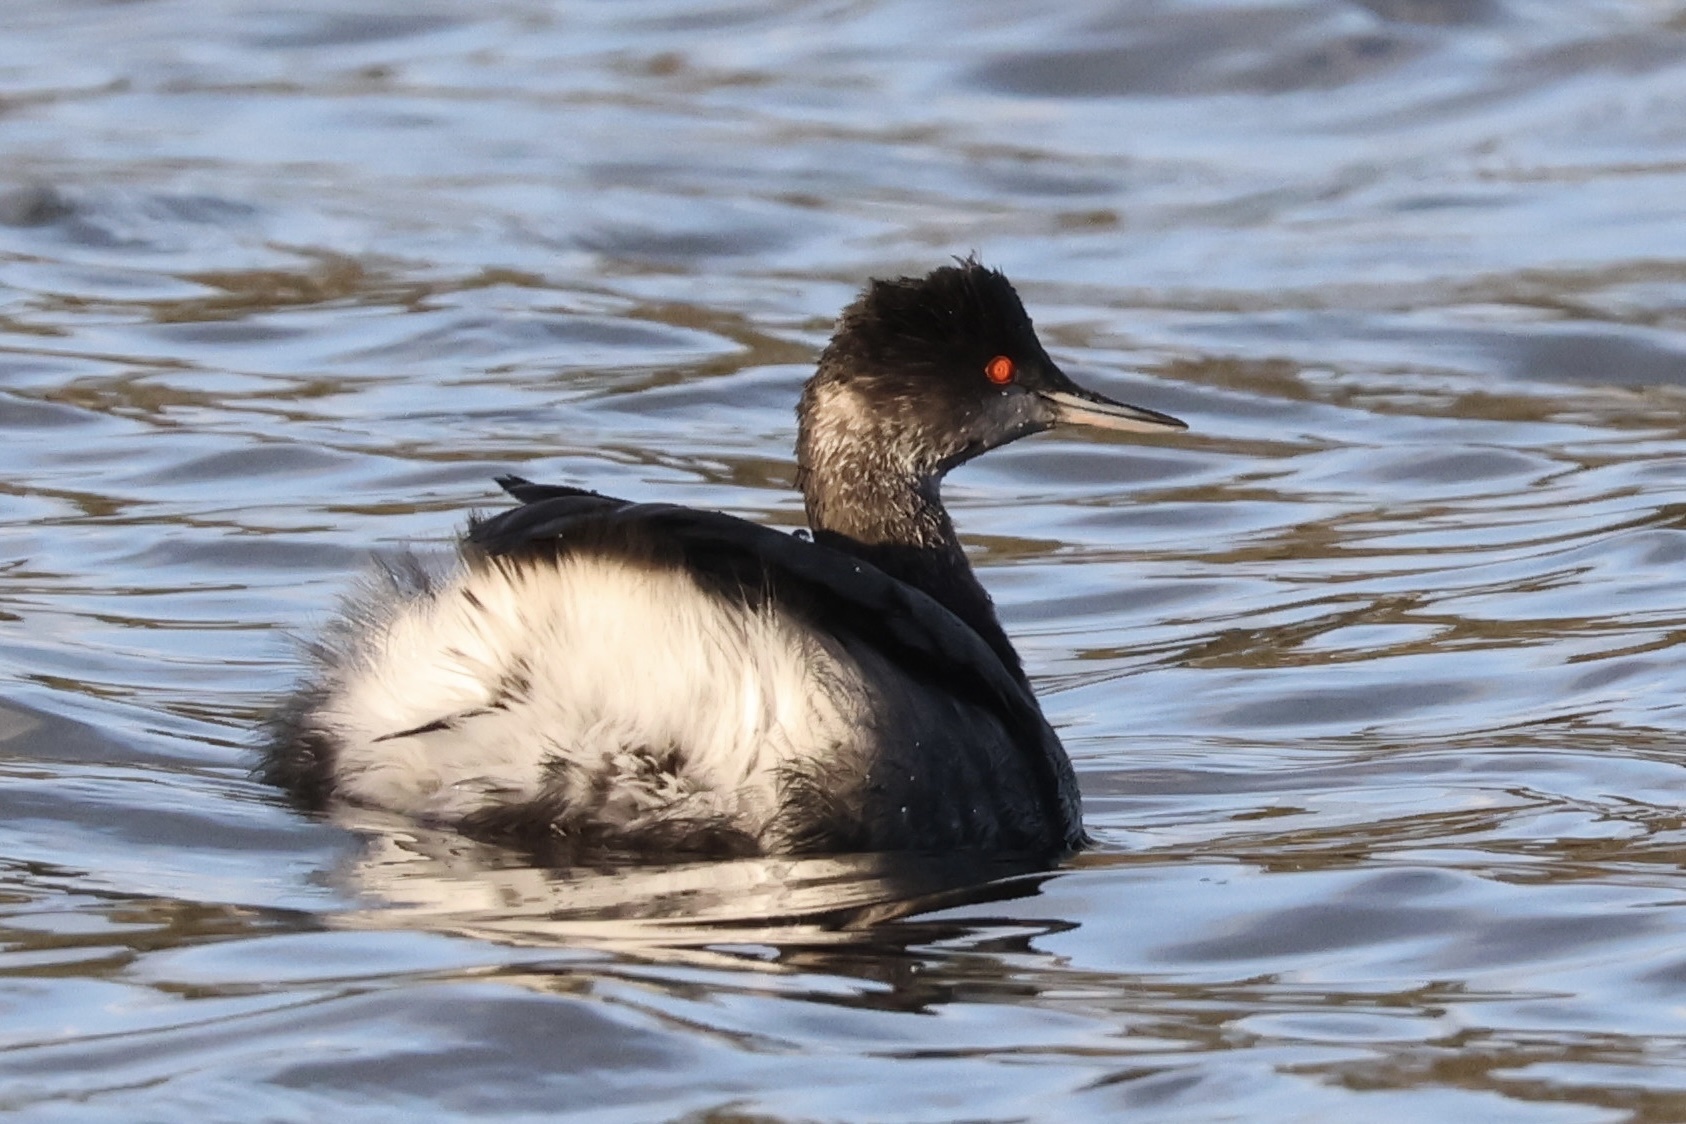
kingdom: Animalia
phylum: Chordata
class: Aves
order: Podicipediformes
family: Podicipedidae
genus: Podiceps
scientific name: Podiceps nigricollis
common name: Black-necked grebe
